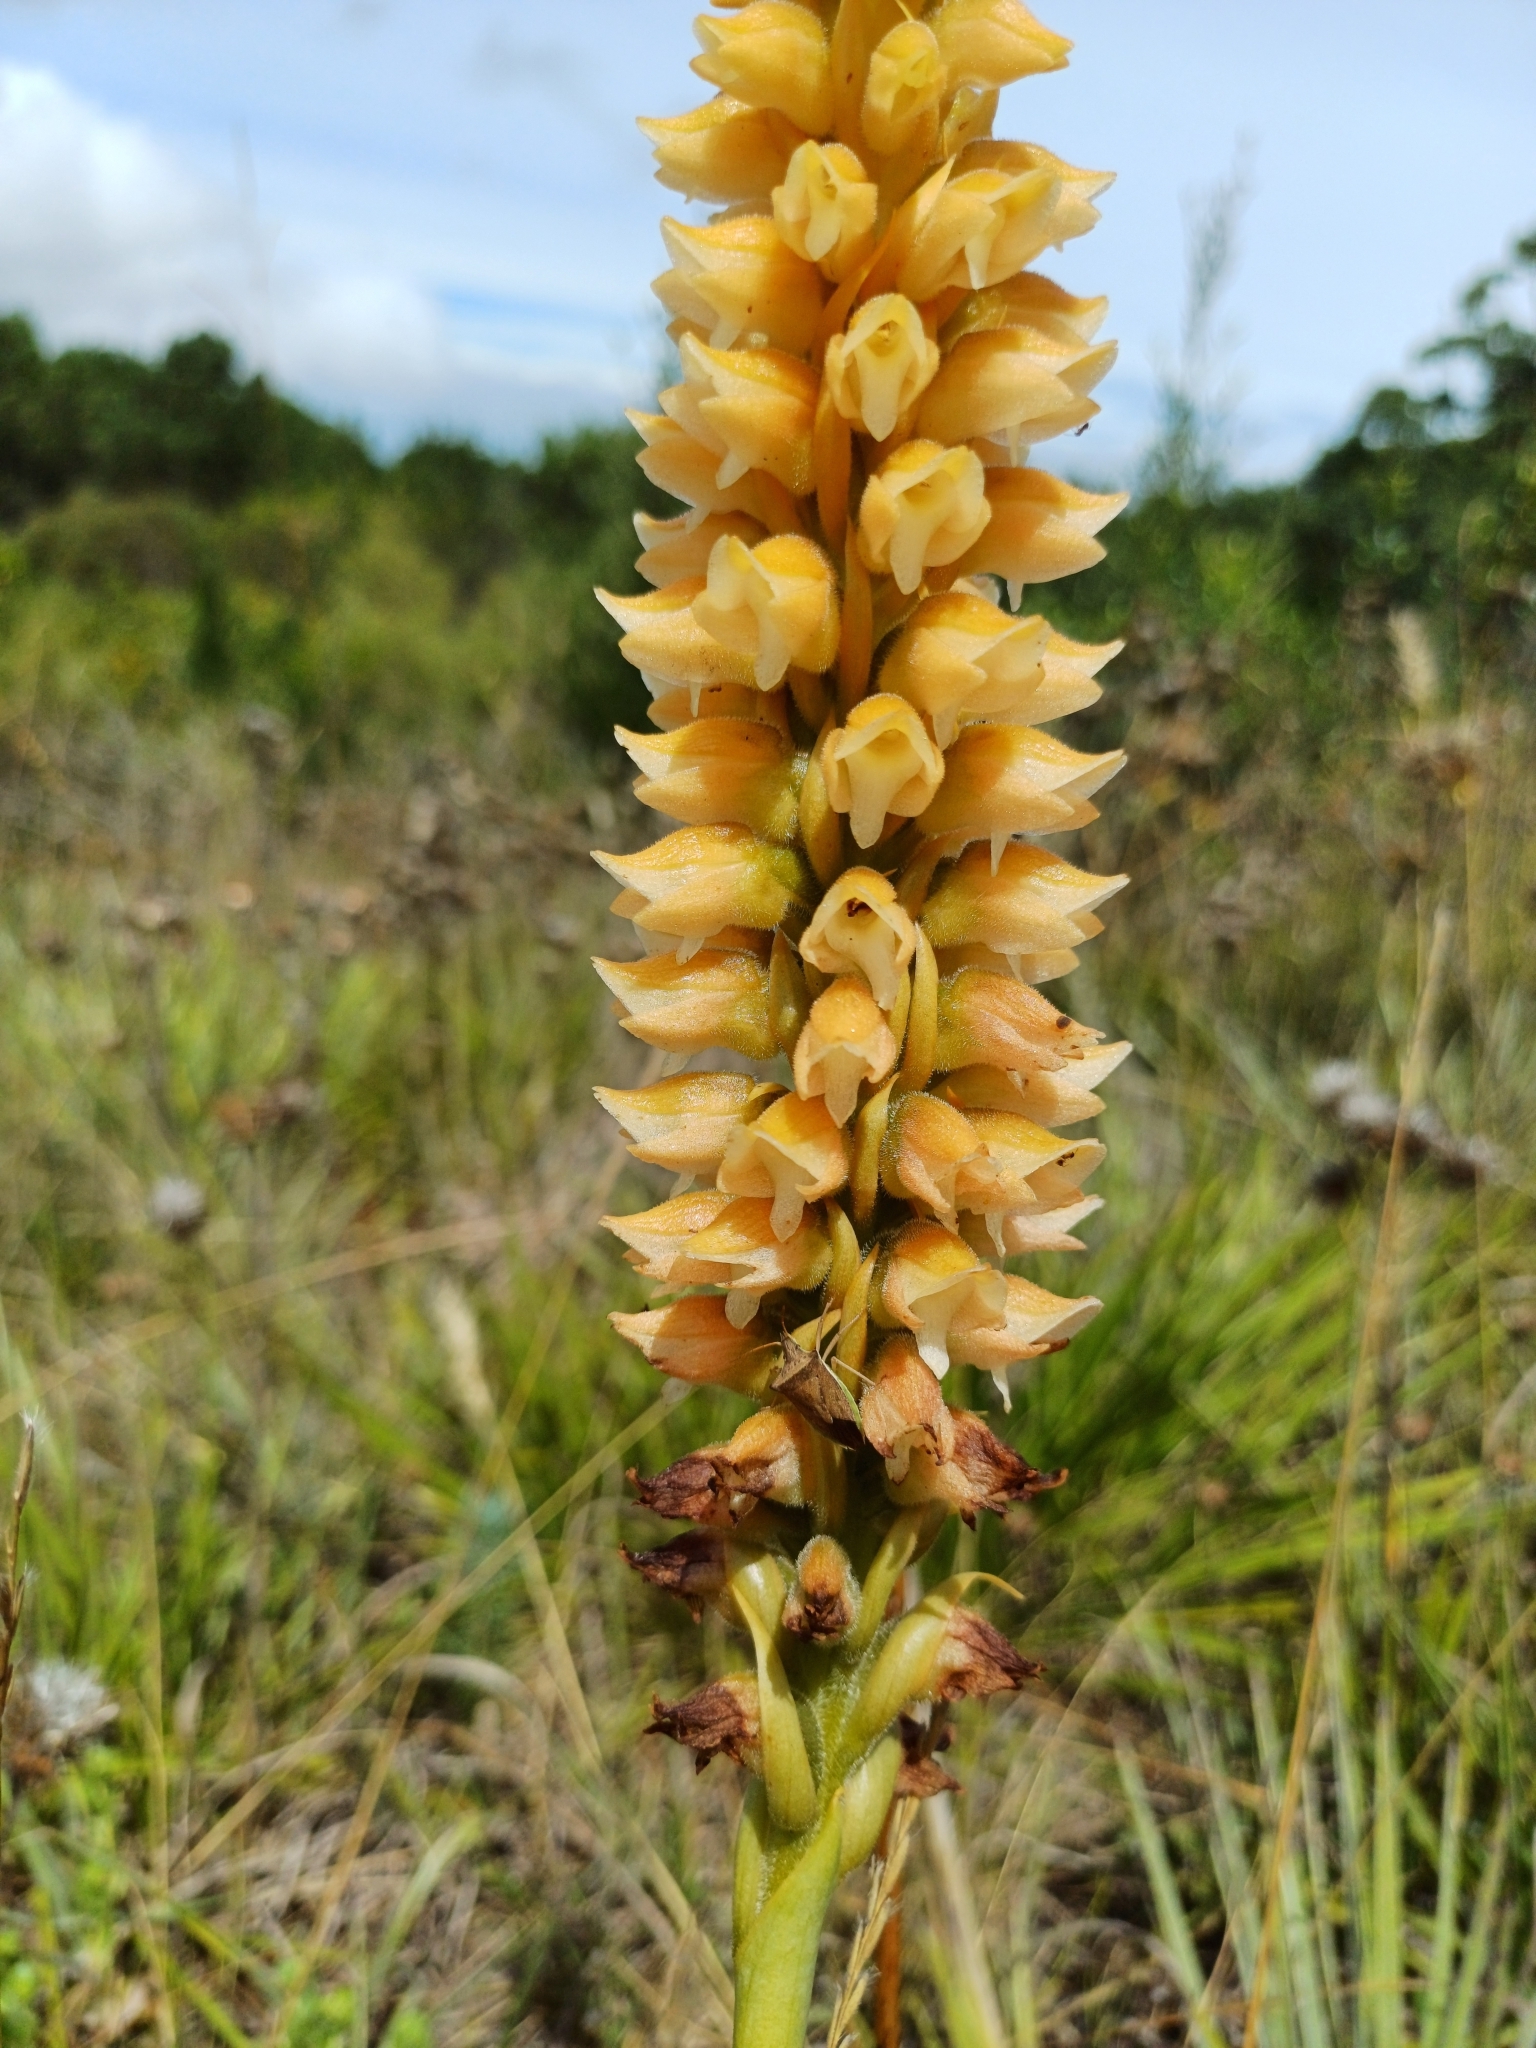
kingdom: Animalia
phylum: Arthropoda
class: Insecta
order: Hemiptera
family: Pentatomidae
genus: Diceraeus
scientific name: Diceraeus furcatus
